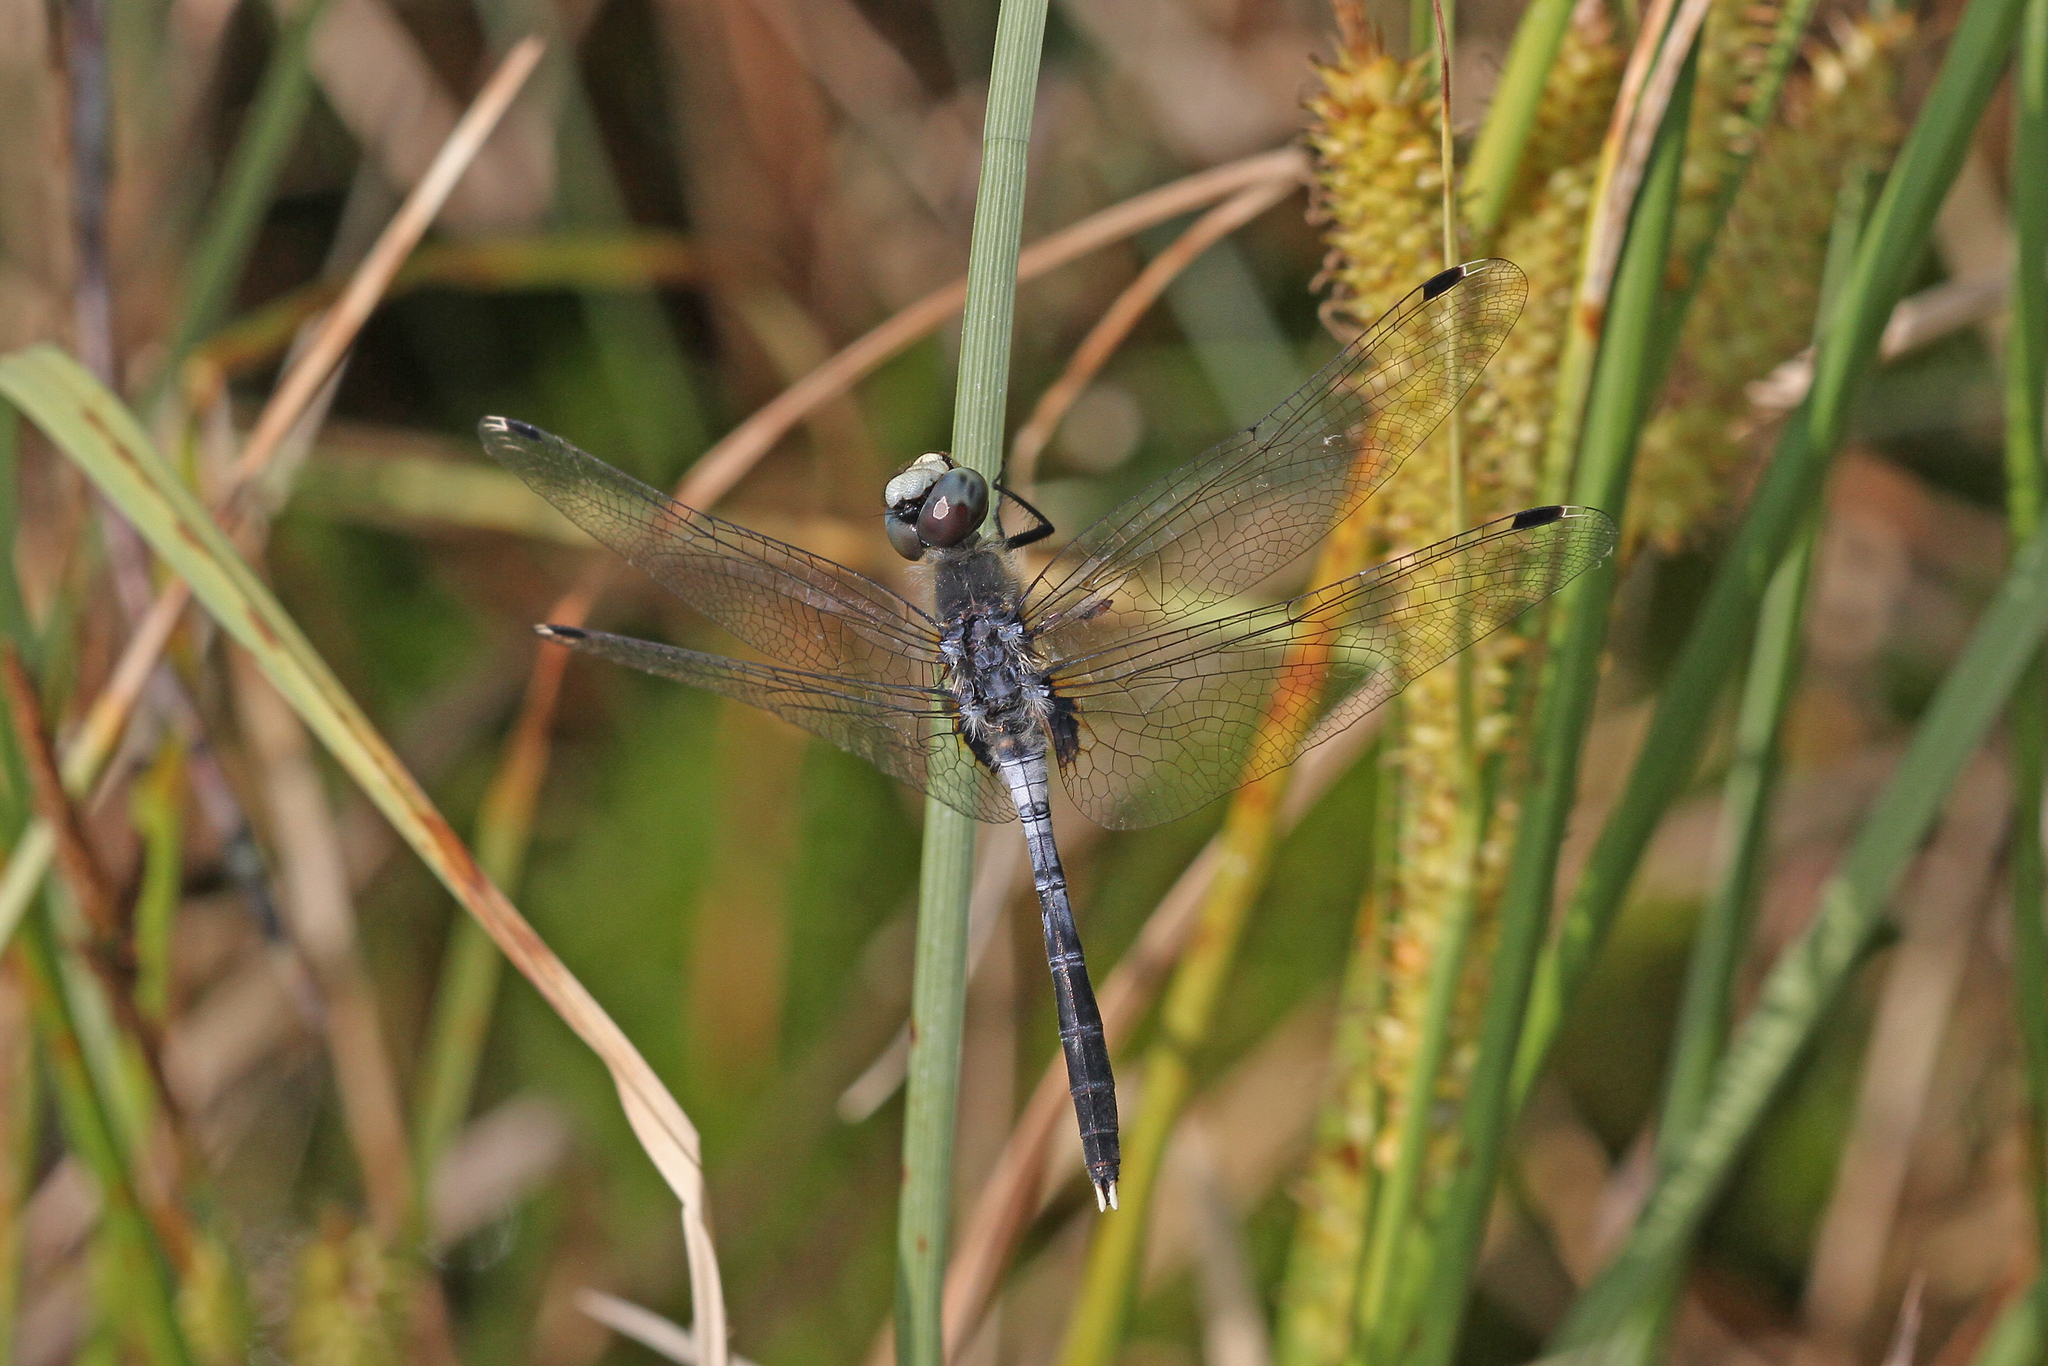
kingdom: Animalia
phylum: Arthropoda
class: Insecta
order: Odonata
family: Libellulidae
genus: Leucorrhinia
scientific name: Leucorrhinia albifrons
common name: Dark whiteface
